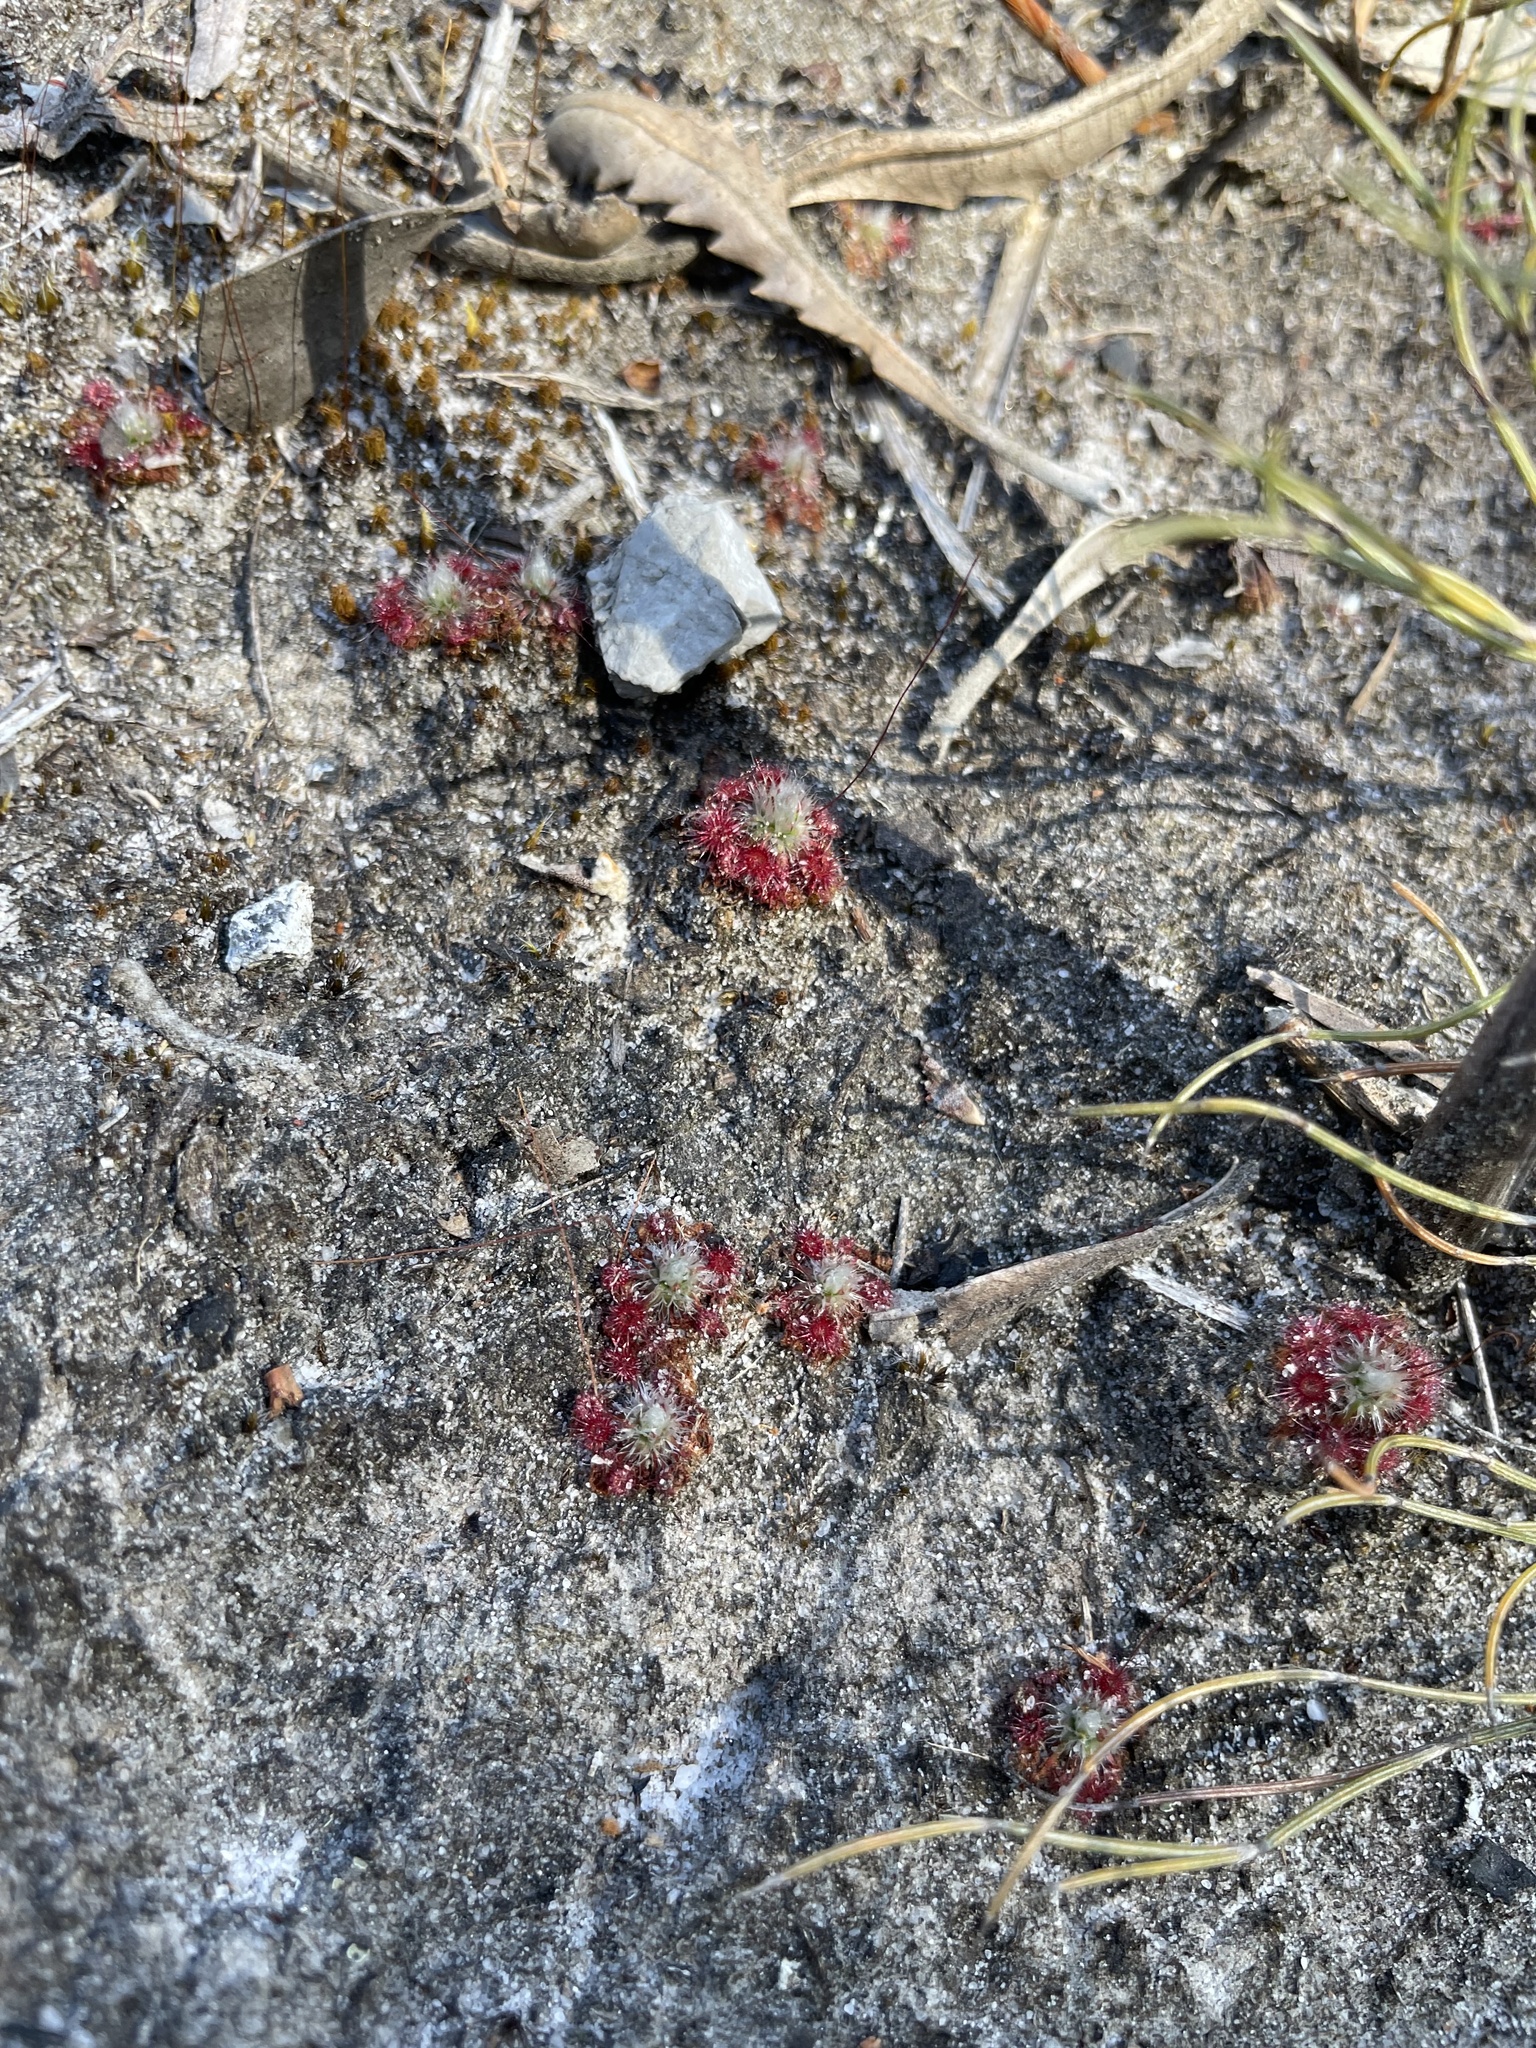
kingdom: Plantae
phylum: Tracheophyta
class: Magnoliopsida
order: Caryophyllales
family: Droseraceae
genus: Drosera
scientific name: Drosera pygmaea
